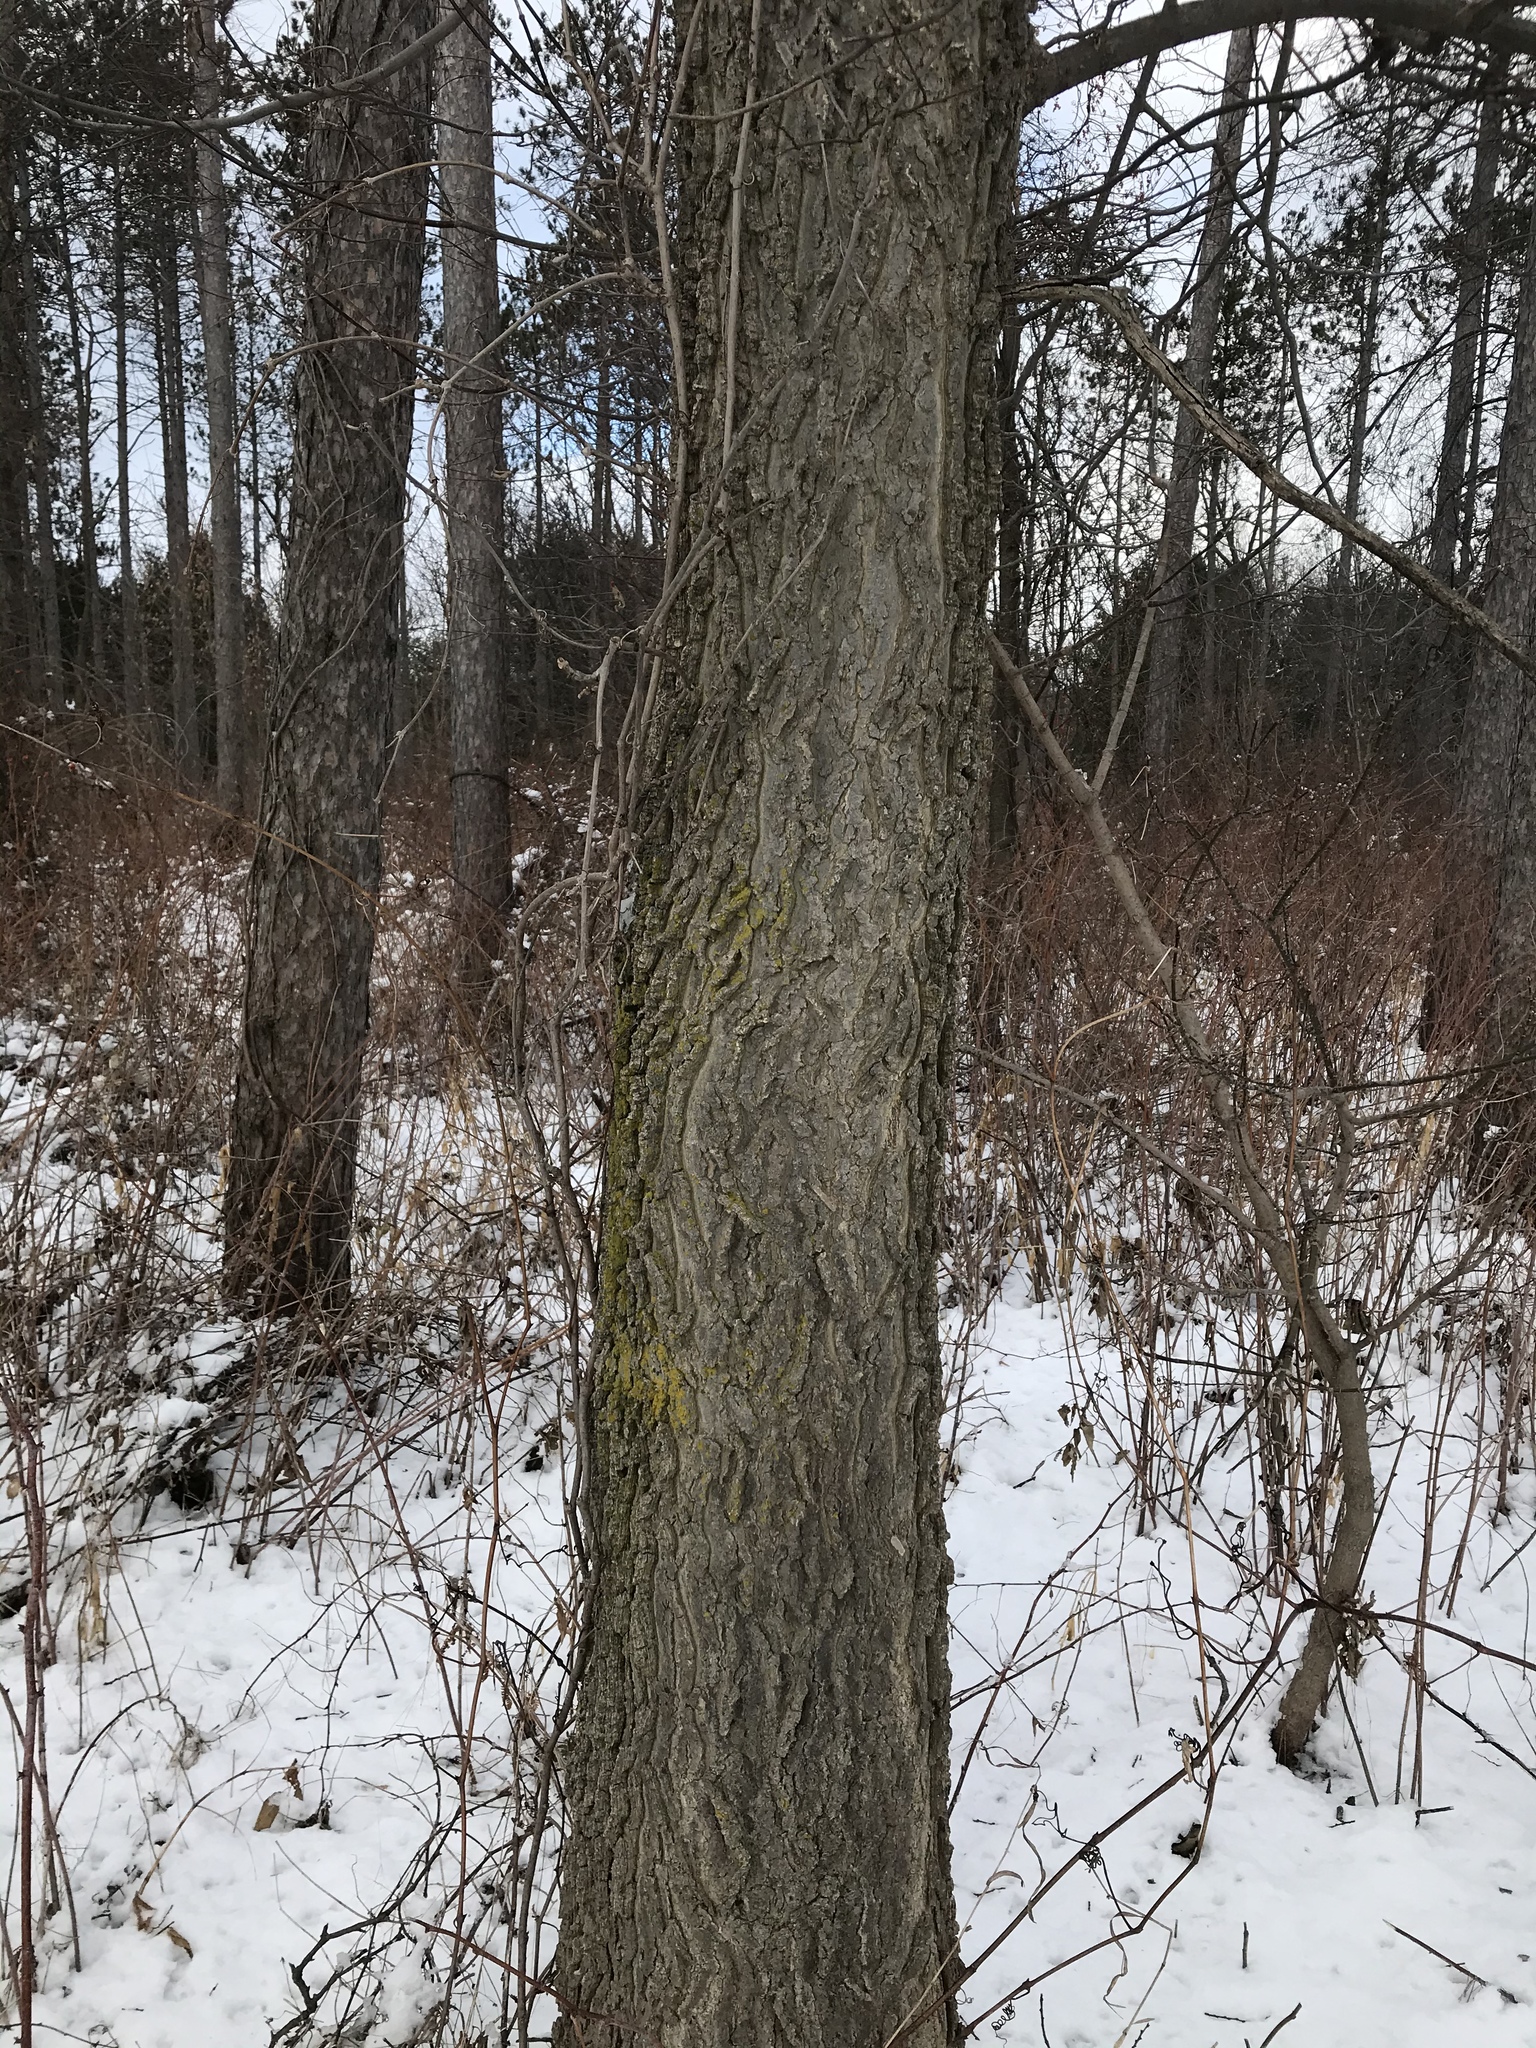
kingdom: Plantae
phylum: Tracheophyta
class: Magnoliopsida
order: Rosales
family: Cannabaceae
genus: Celtis
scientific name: Celtis occidentalis
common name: Common hackberry
